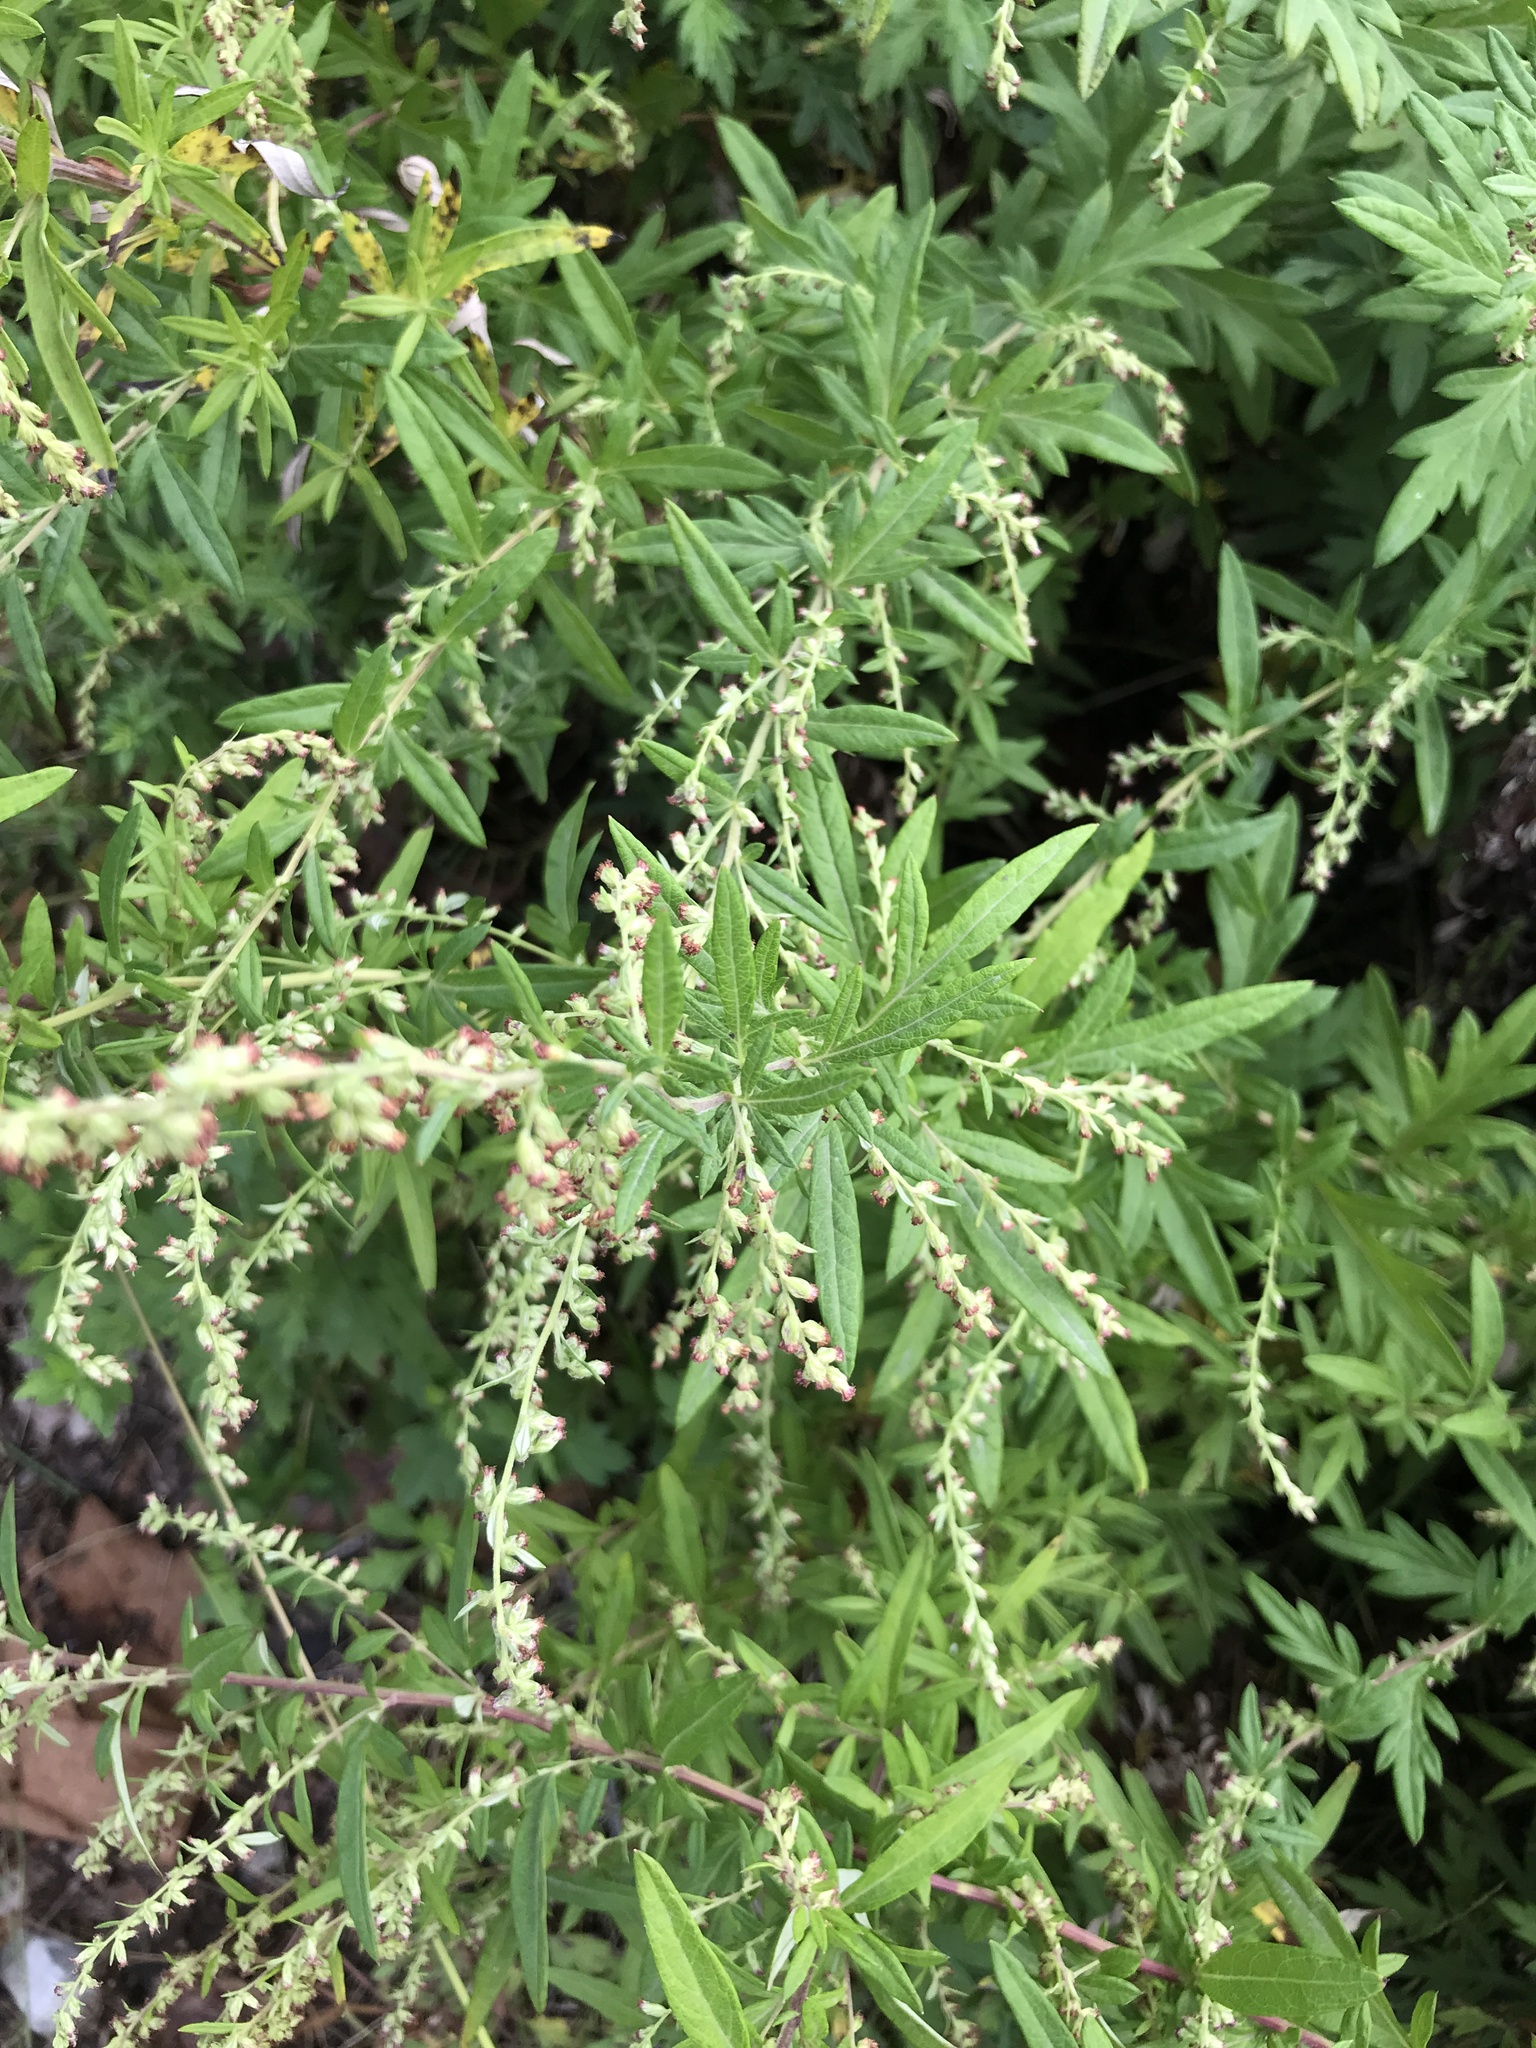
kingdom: Plantae
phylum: Tracheophyta
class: Magnoliopsida
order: Asterales
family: Asteraceae
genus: Artemisia
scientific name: Artemisia vulgaris
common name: Mugwort
